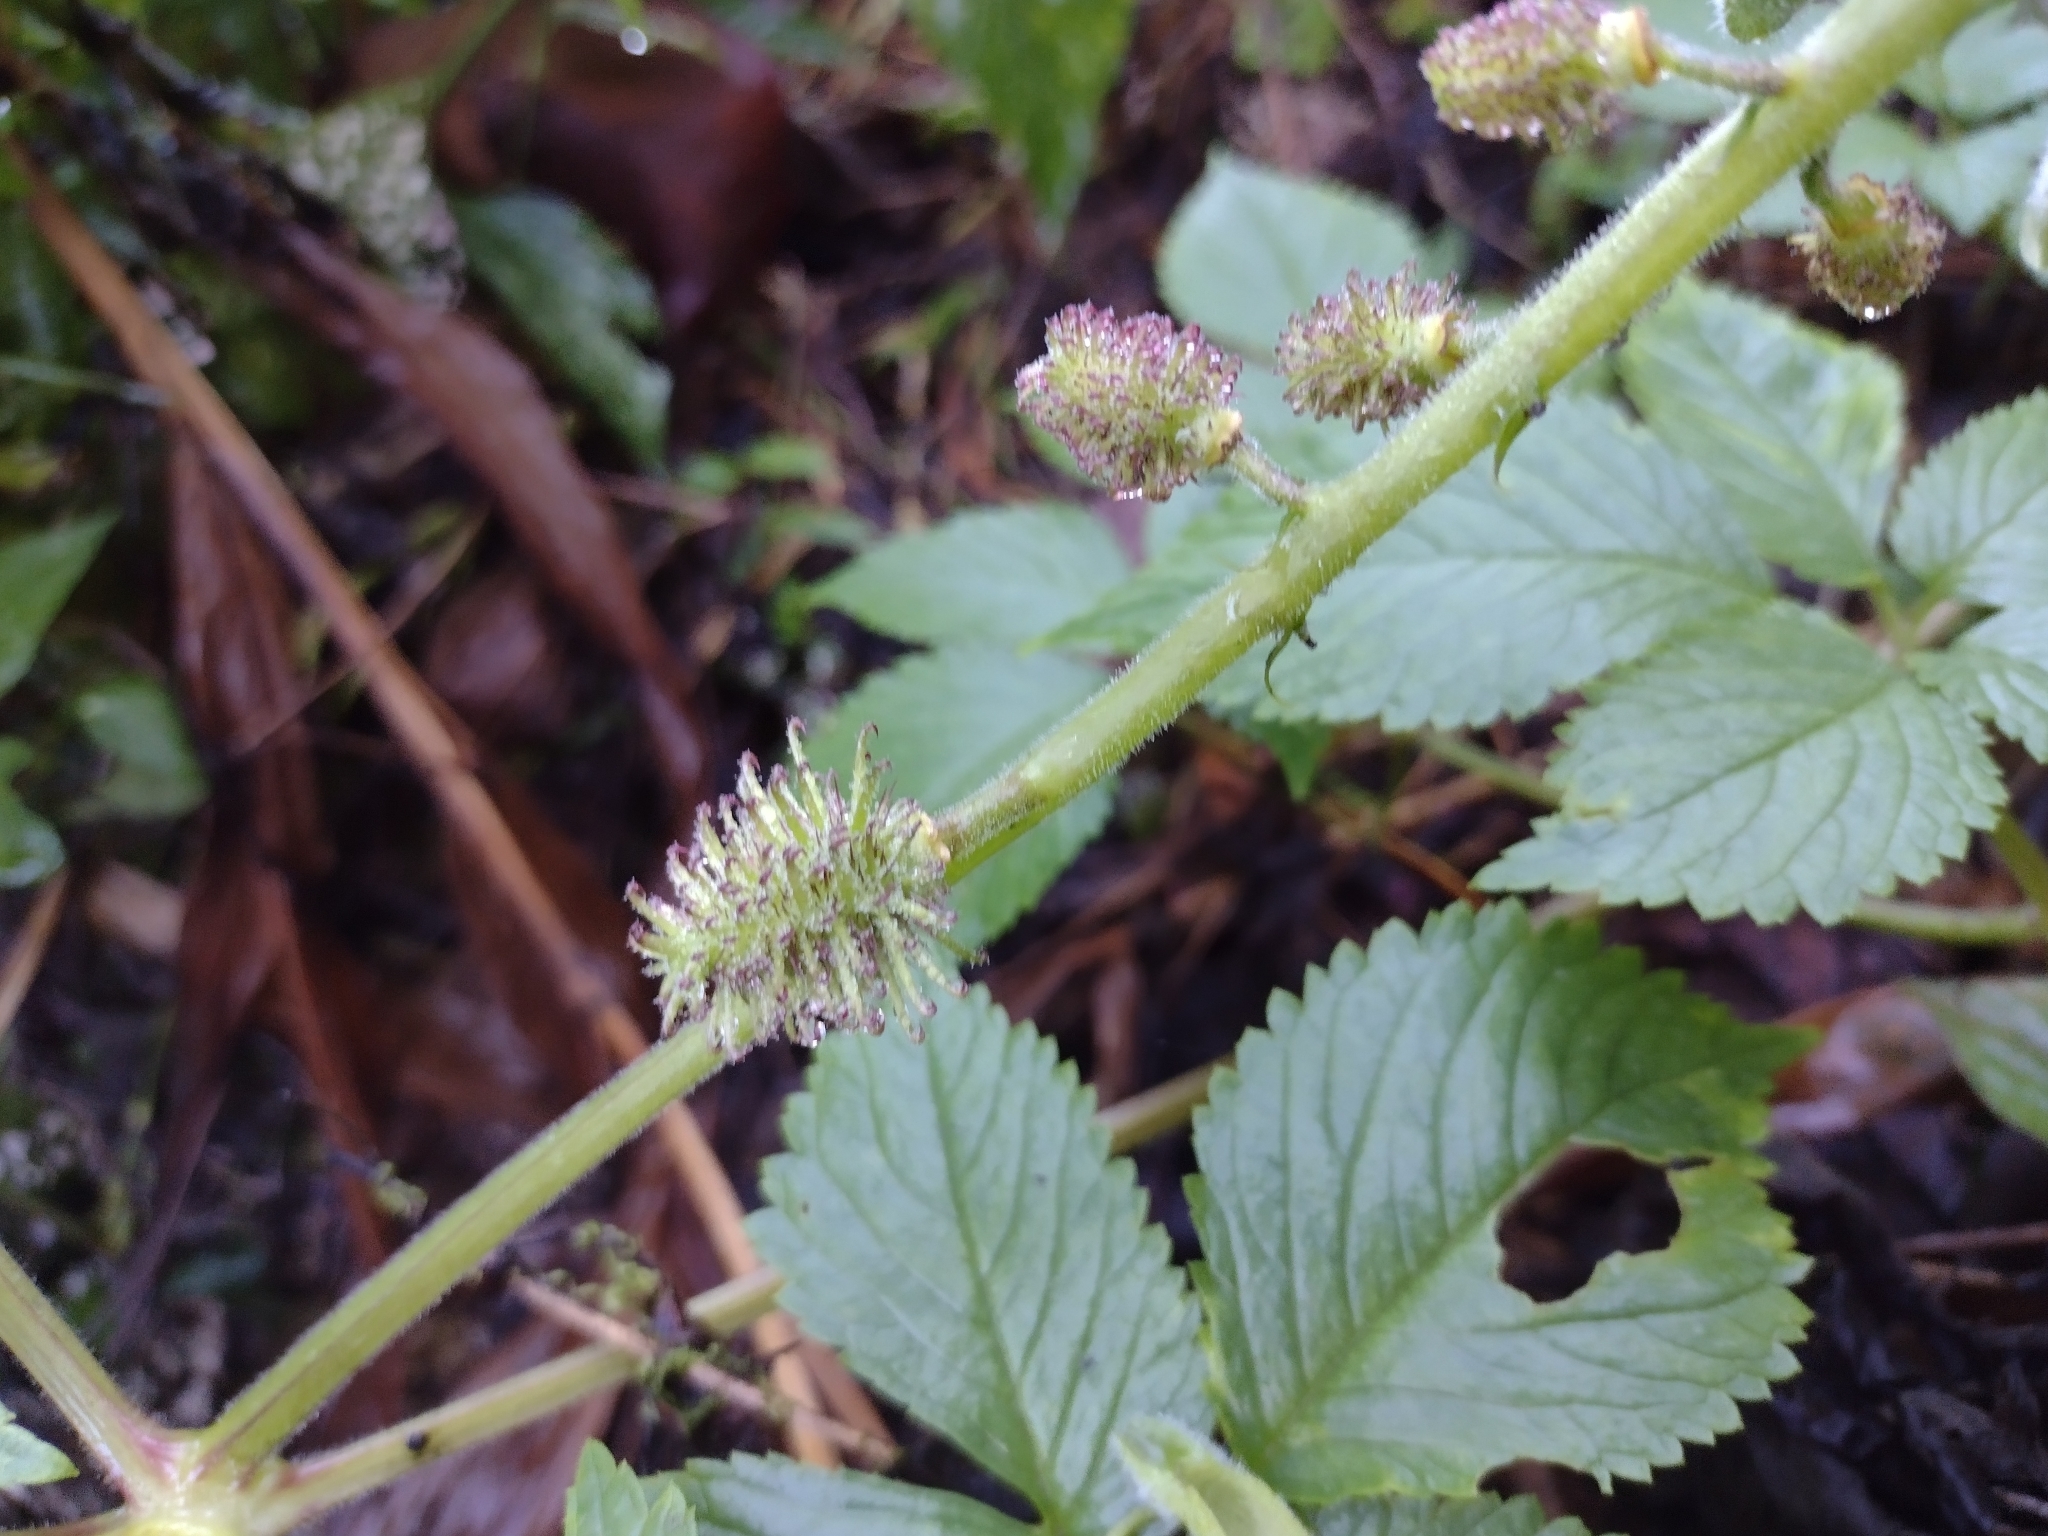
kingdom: Plantae
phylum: Tracheophyta
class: Magnoliopsida
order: Lamiales
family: Bignoniaceae
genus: Tourrettia
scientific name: Tourrettia lappacea
